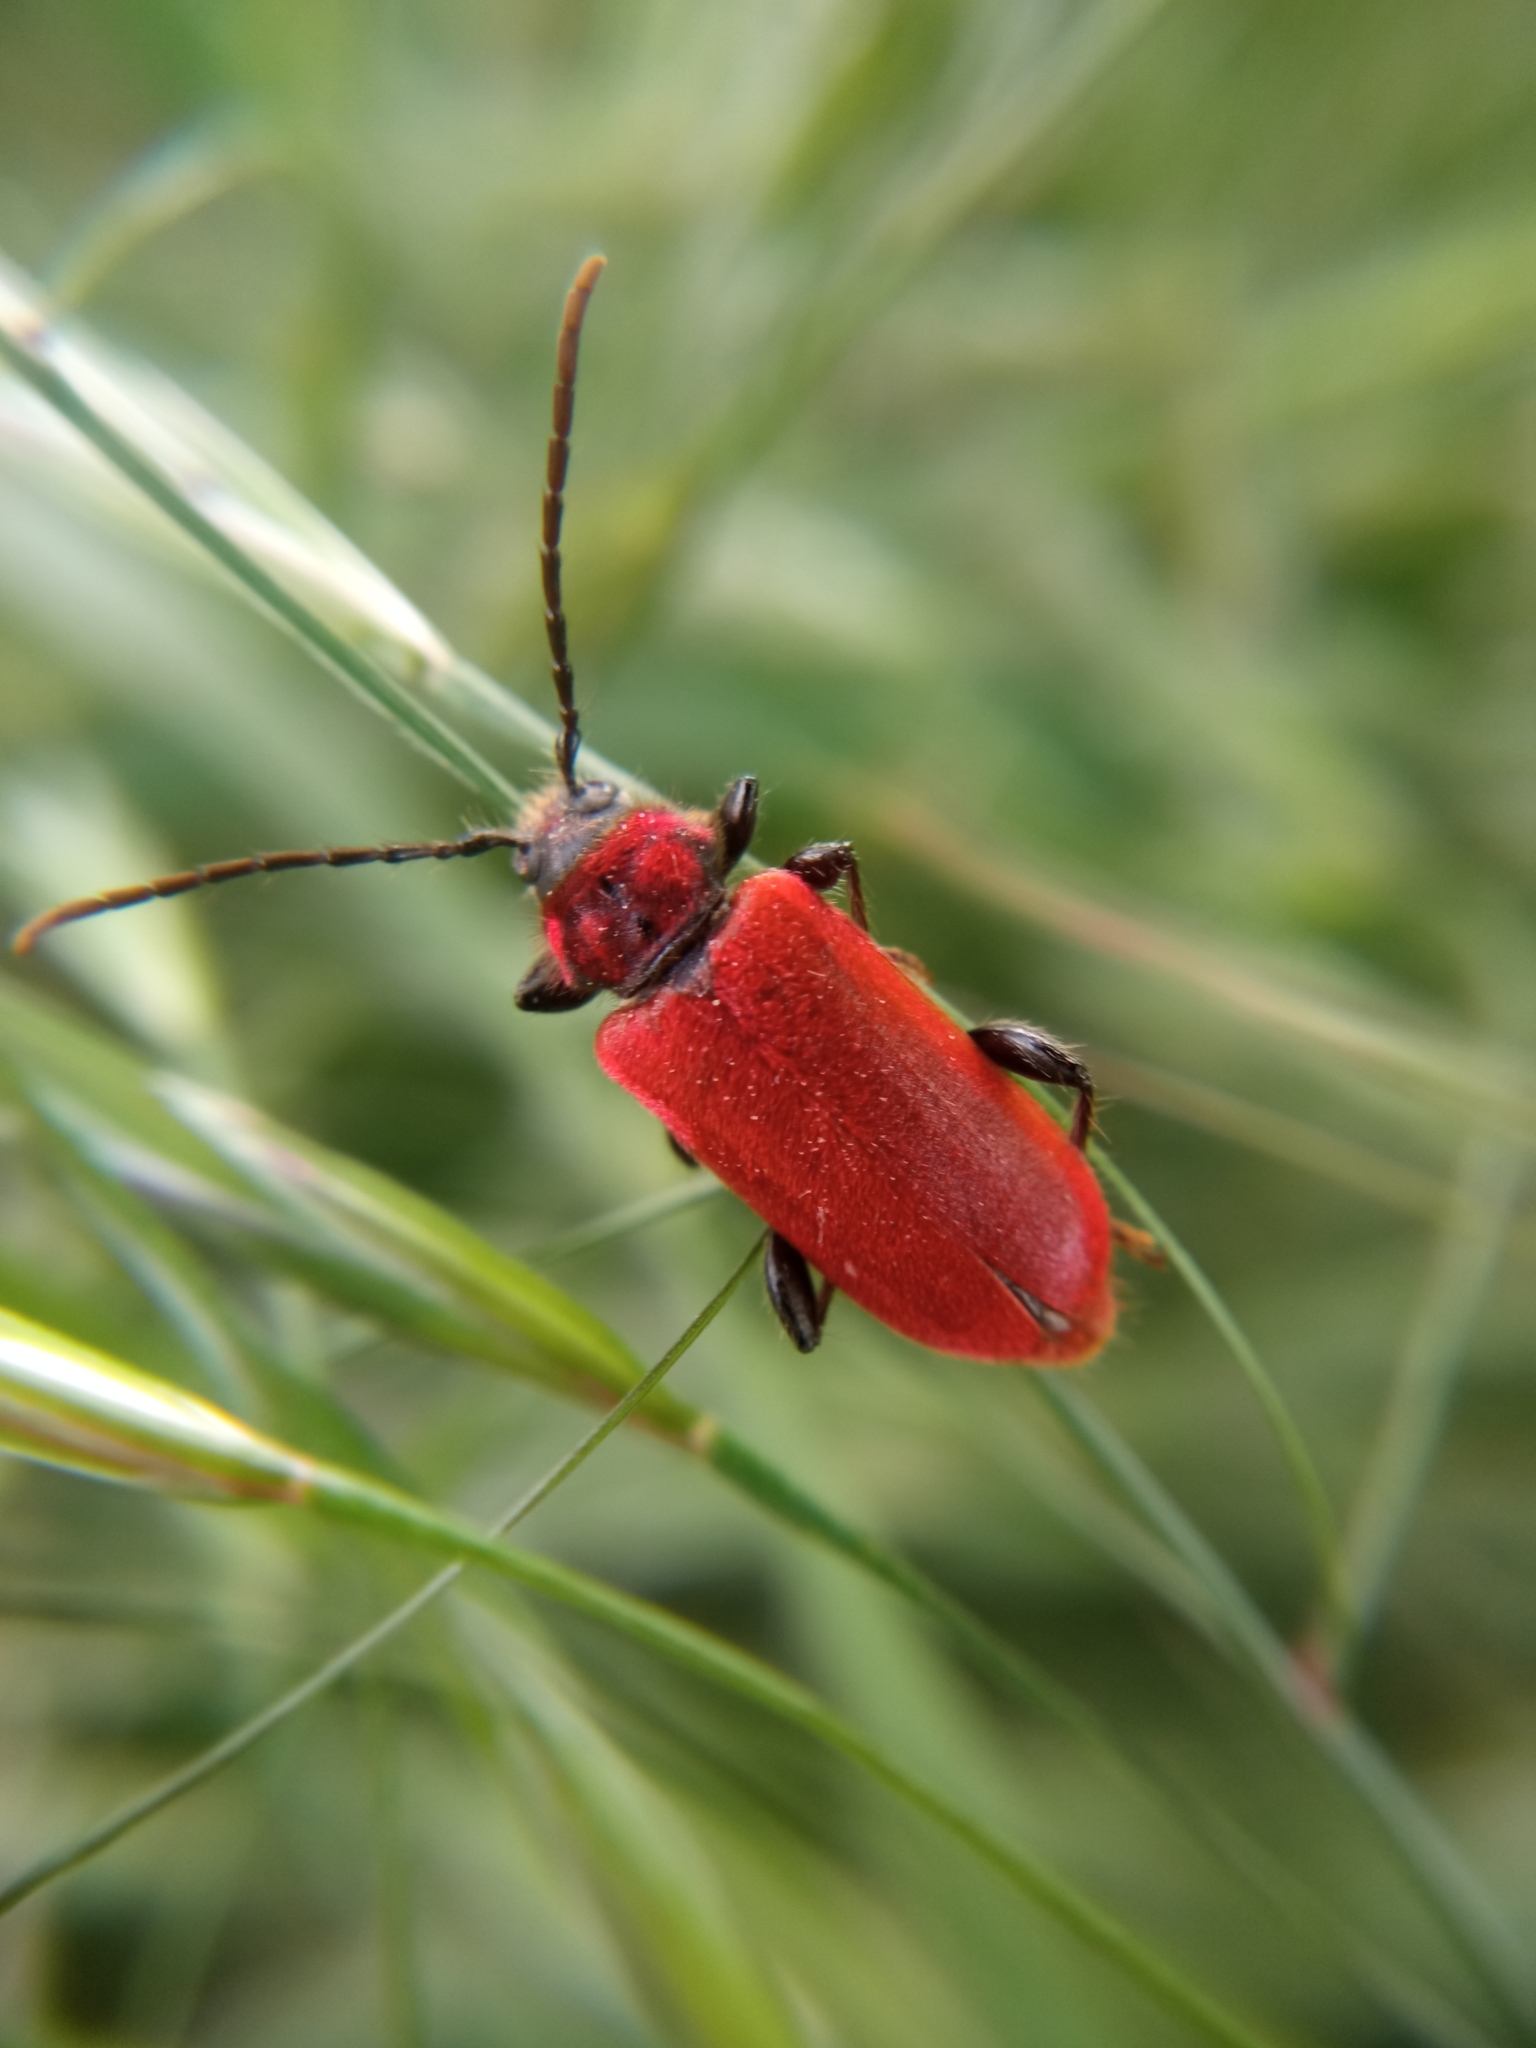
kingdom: Animalia
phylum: Arthropoda
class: Insecta
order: Coleoptera
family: Cerambycidae
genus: Pyrrhidium
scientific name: Pyrrhidium sanguineum
